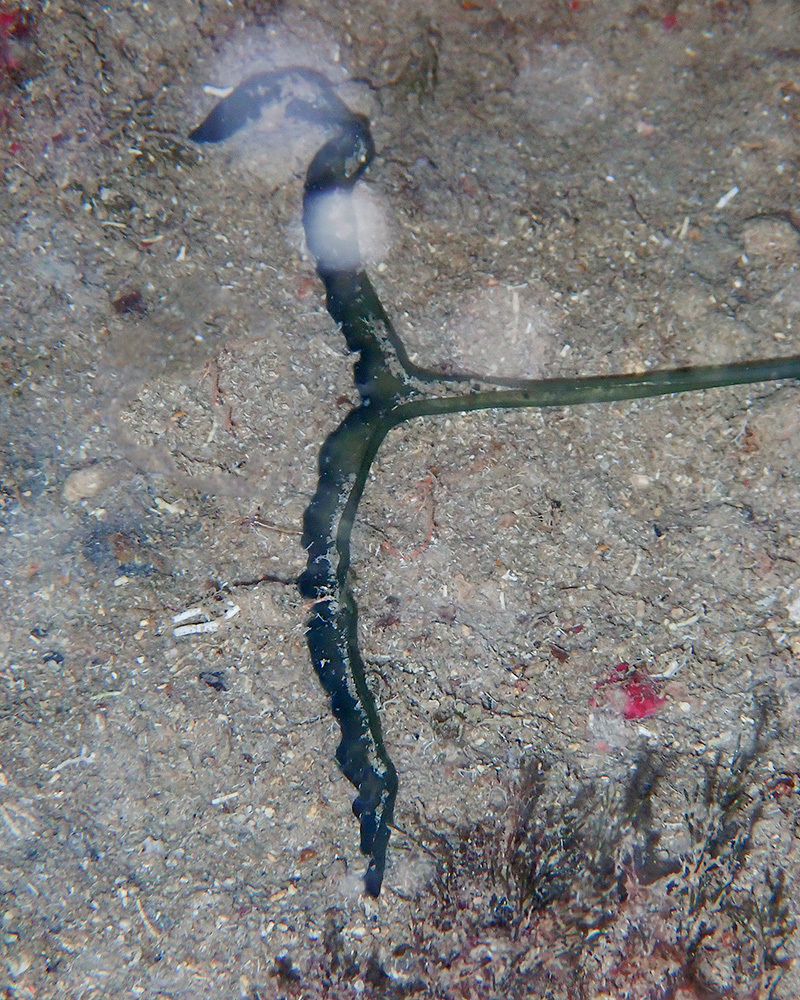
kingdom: Animalia
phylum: Annelida
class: Polychaeta
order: Echiuroidea
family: Bonelliidae
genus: Bonellia
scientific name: Bonellia viridis
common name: Green spoon worm
